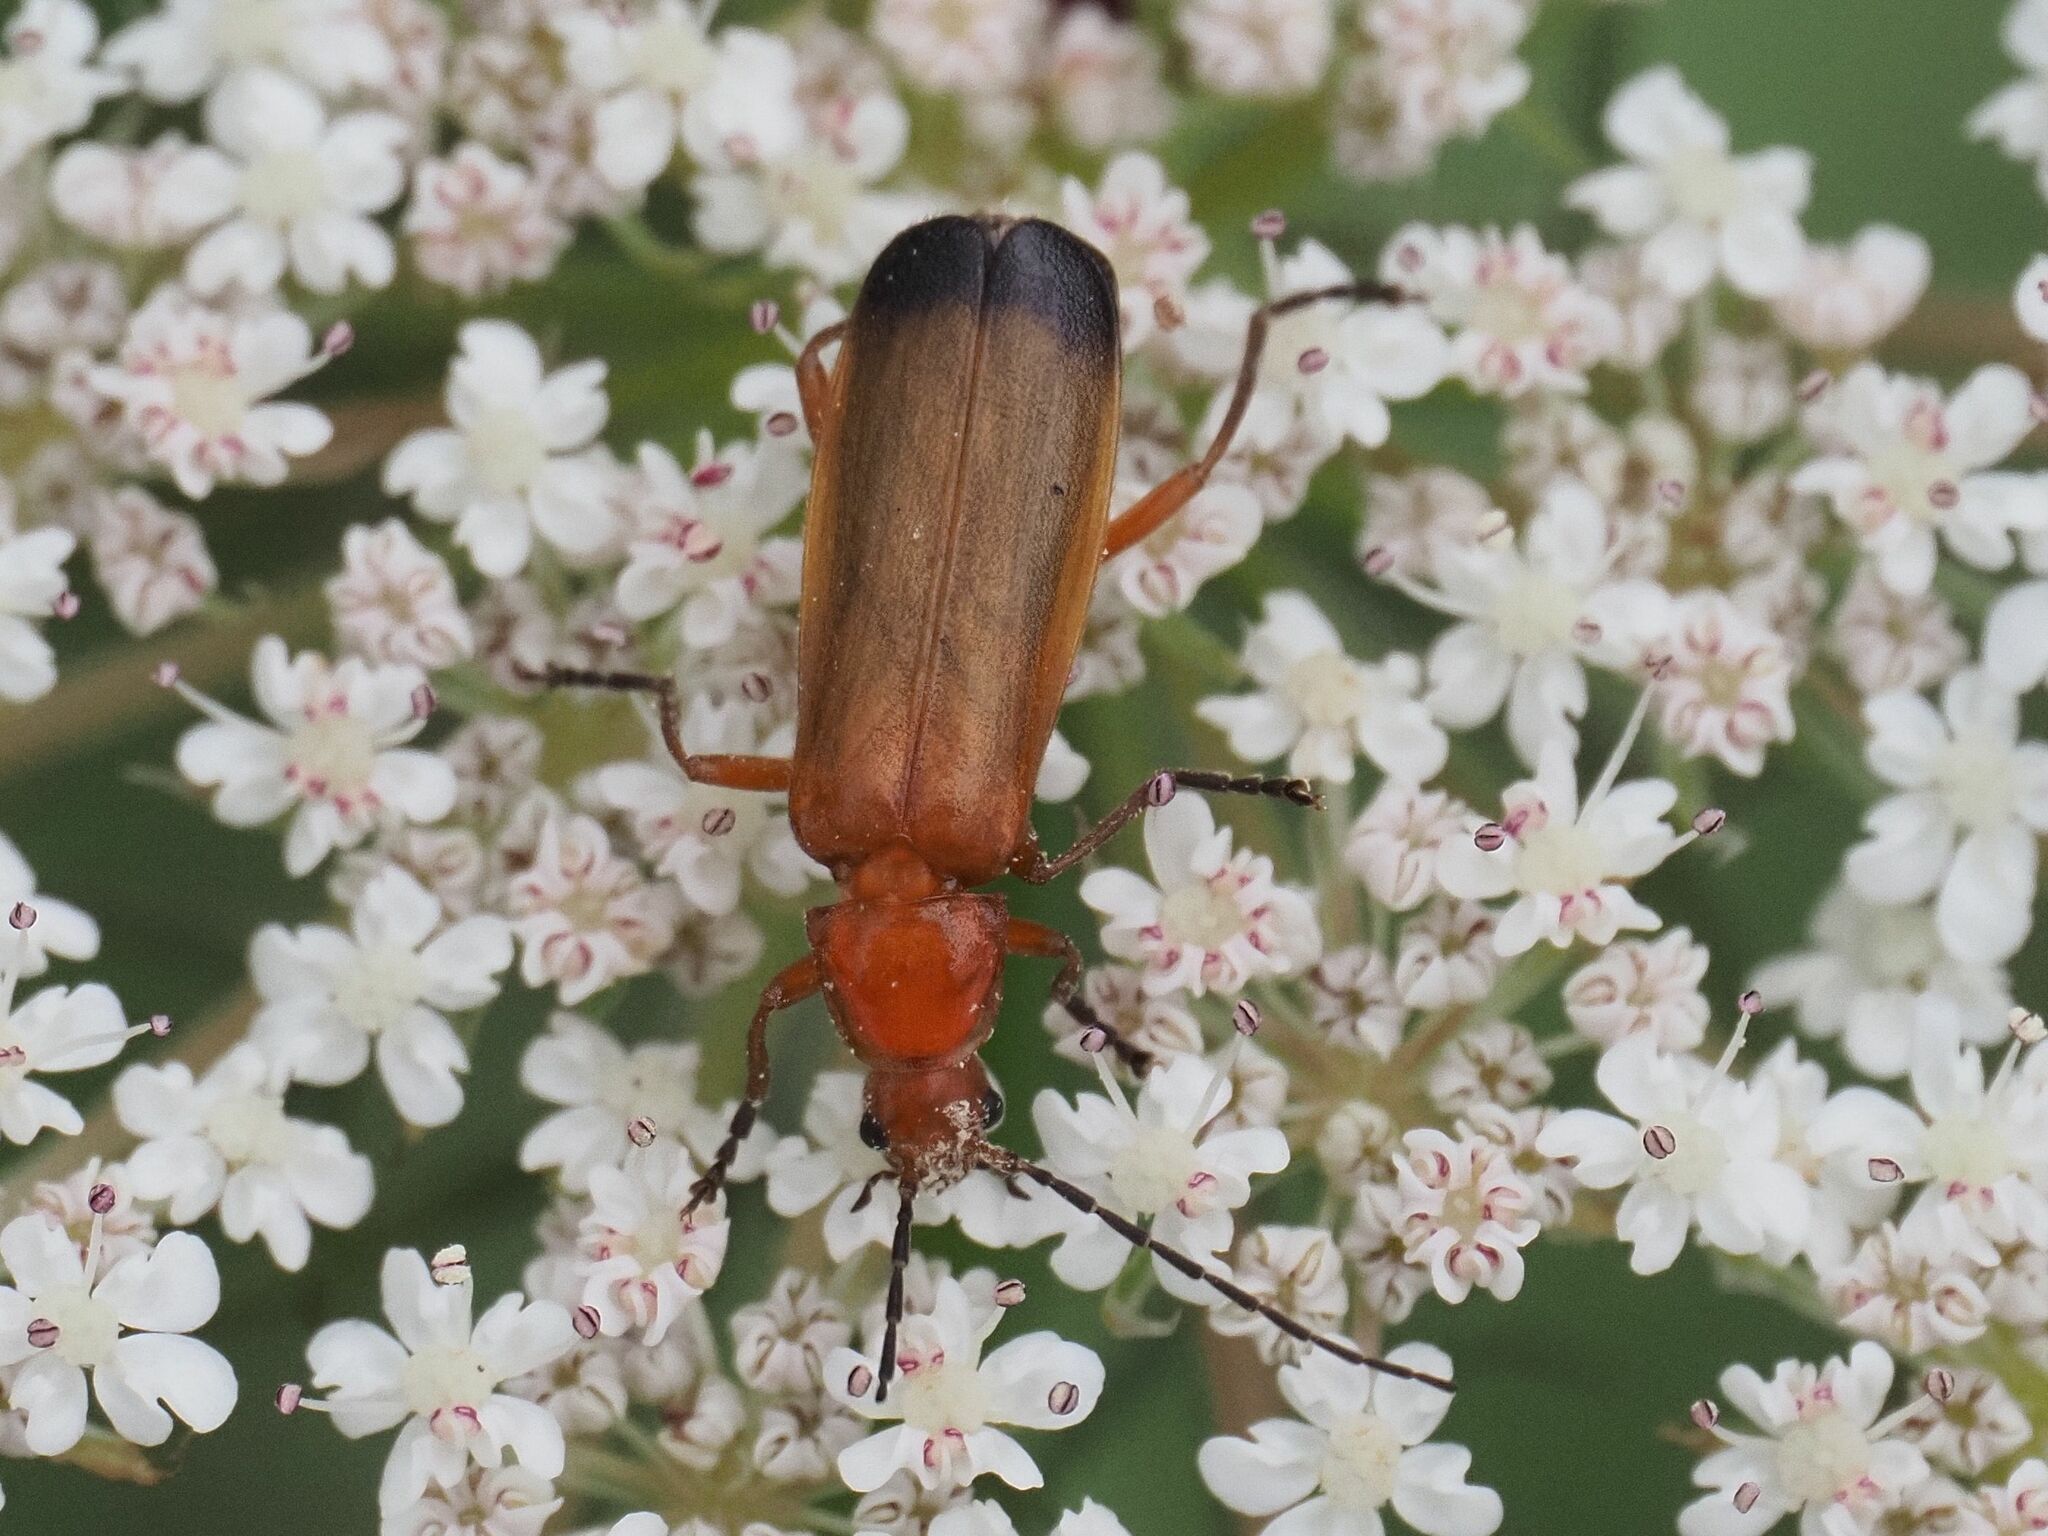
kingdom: Animalia
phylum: Arthropoda
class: Insecta
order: Coleoptera
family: Cantharidae
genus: Rhagonycha
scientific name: Rhagonycha fulva
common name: Common red soldier beetle
